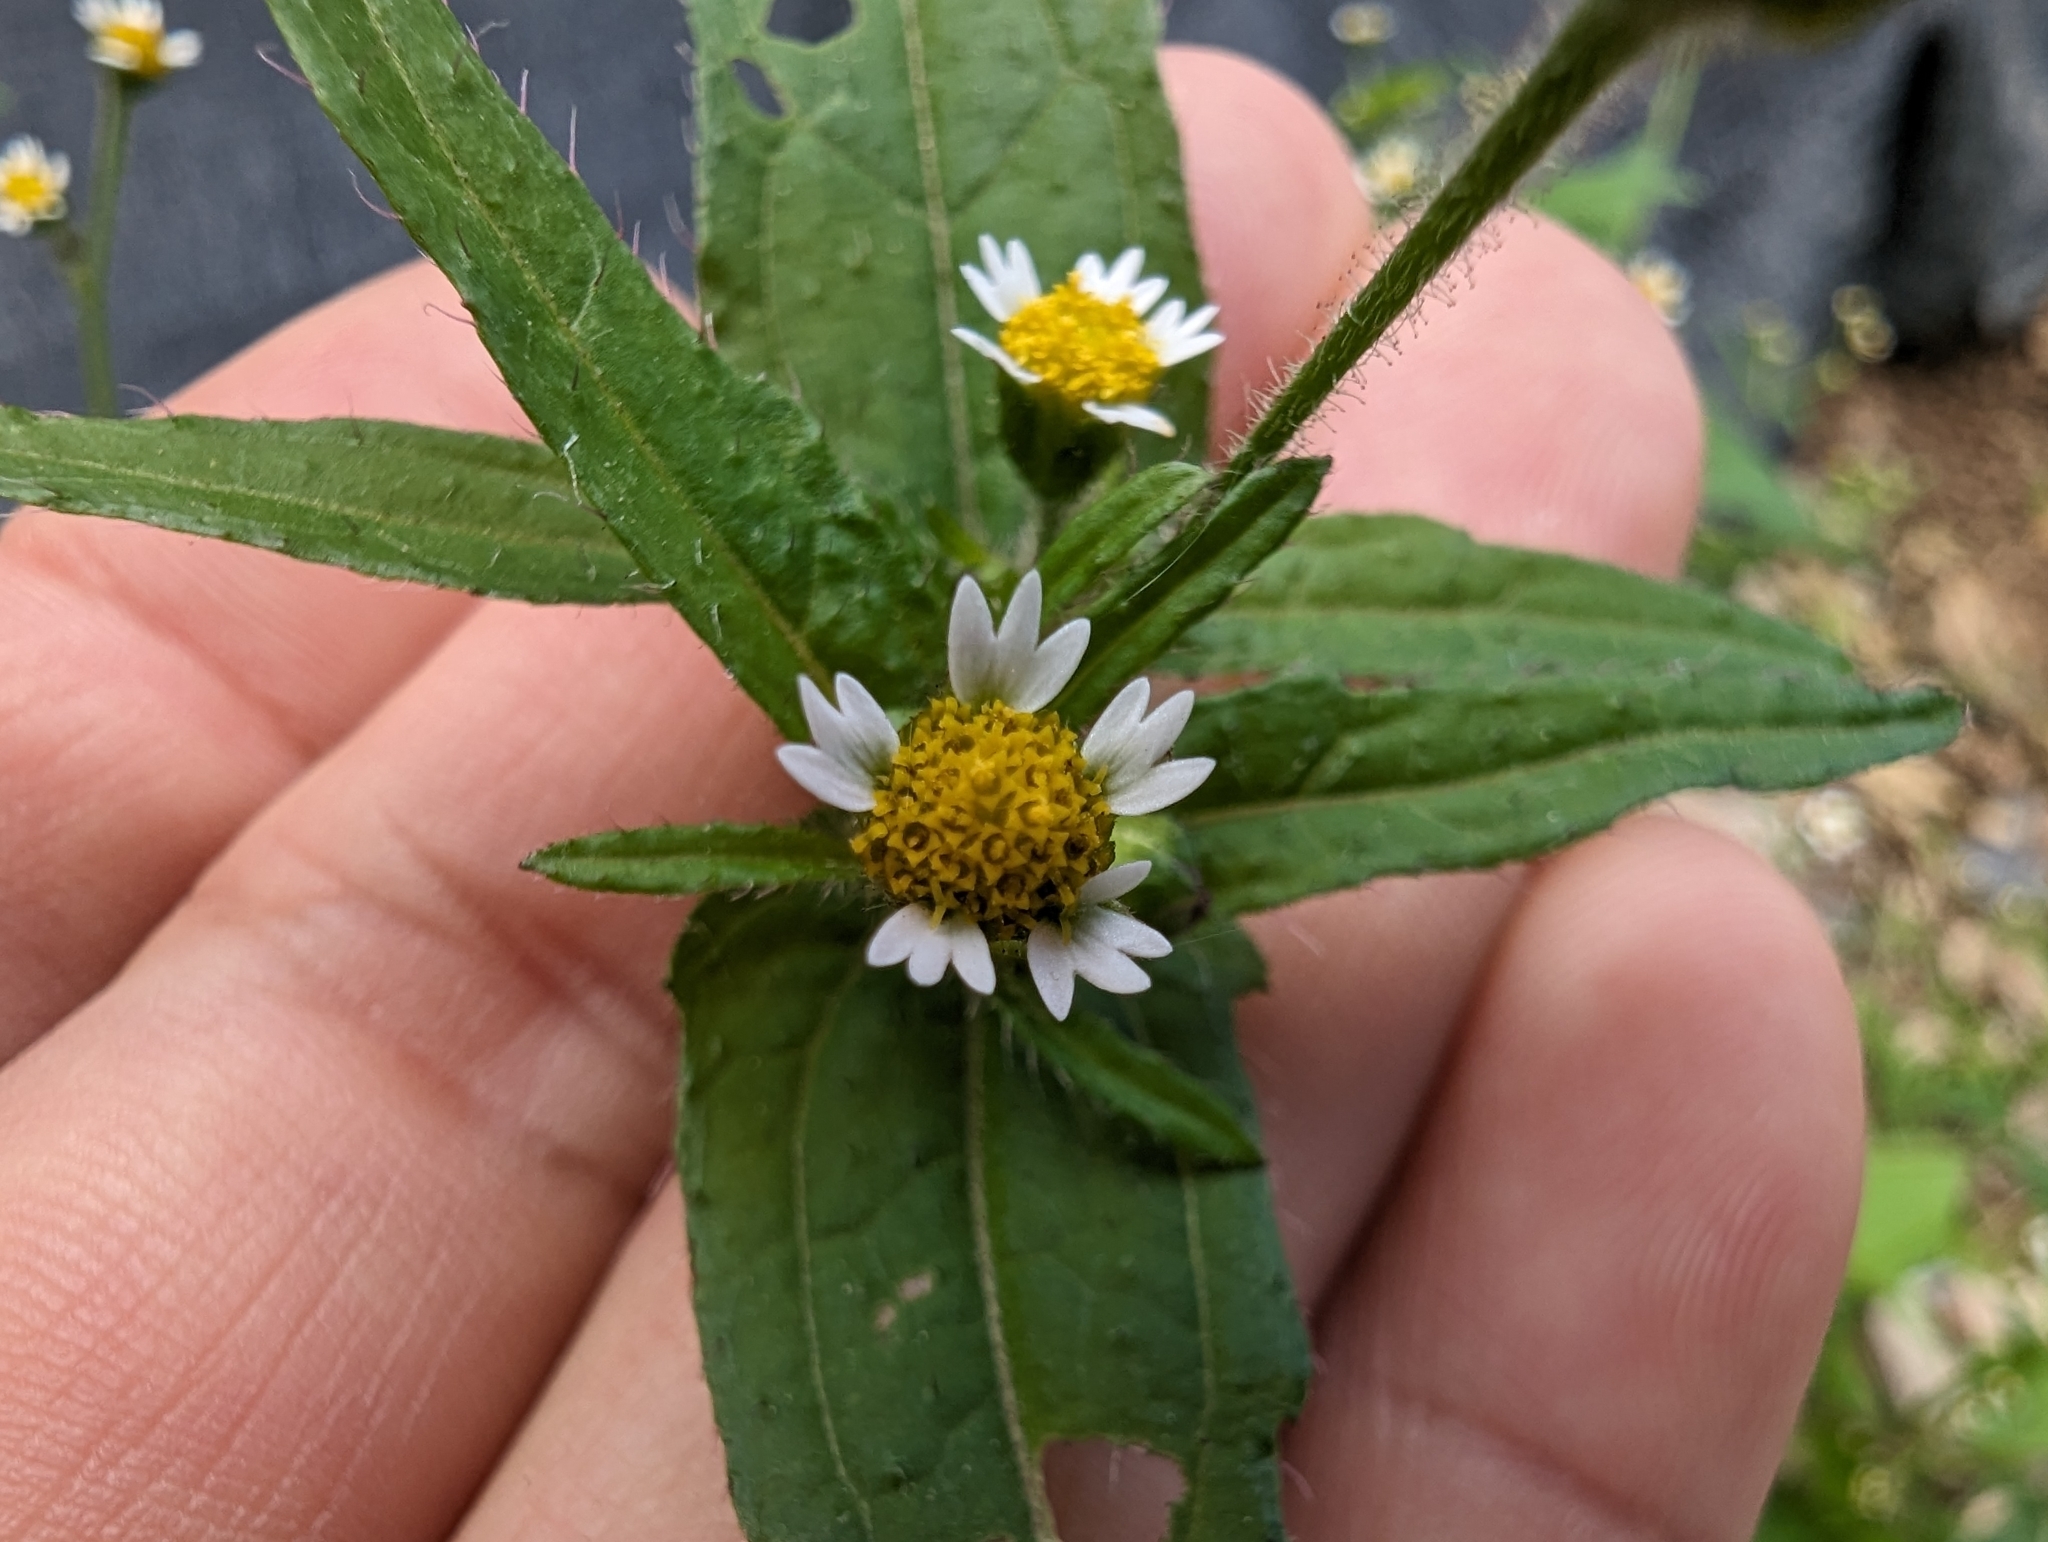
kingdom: Plantae
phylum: Tracheophyta
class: Magnoliopsida
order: Asterales
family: Asteraceae
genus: Galinsoga
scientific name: Galinsoga quadriradiata
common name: Shaggy soldier
